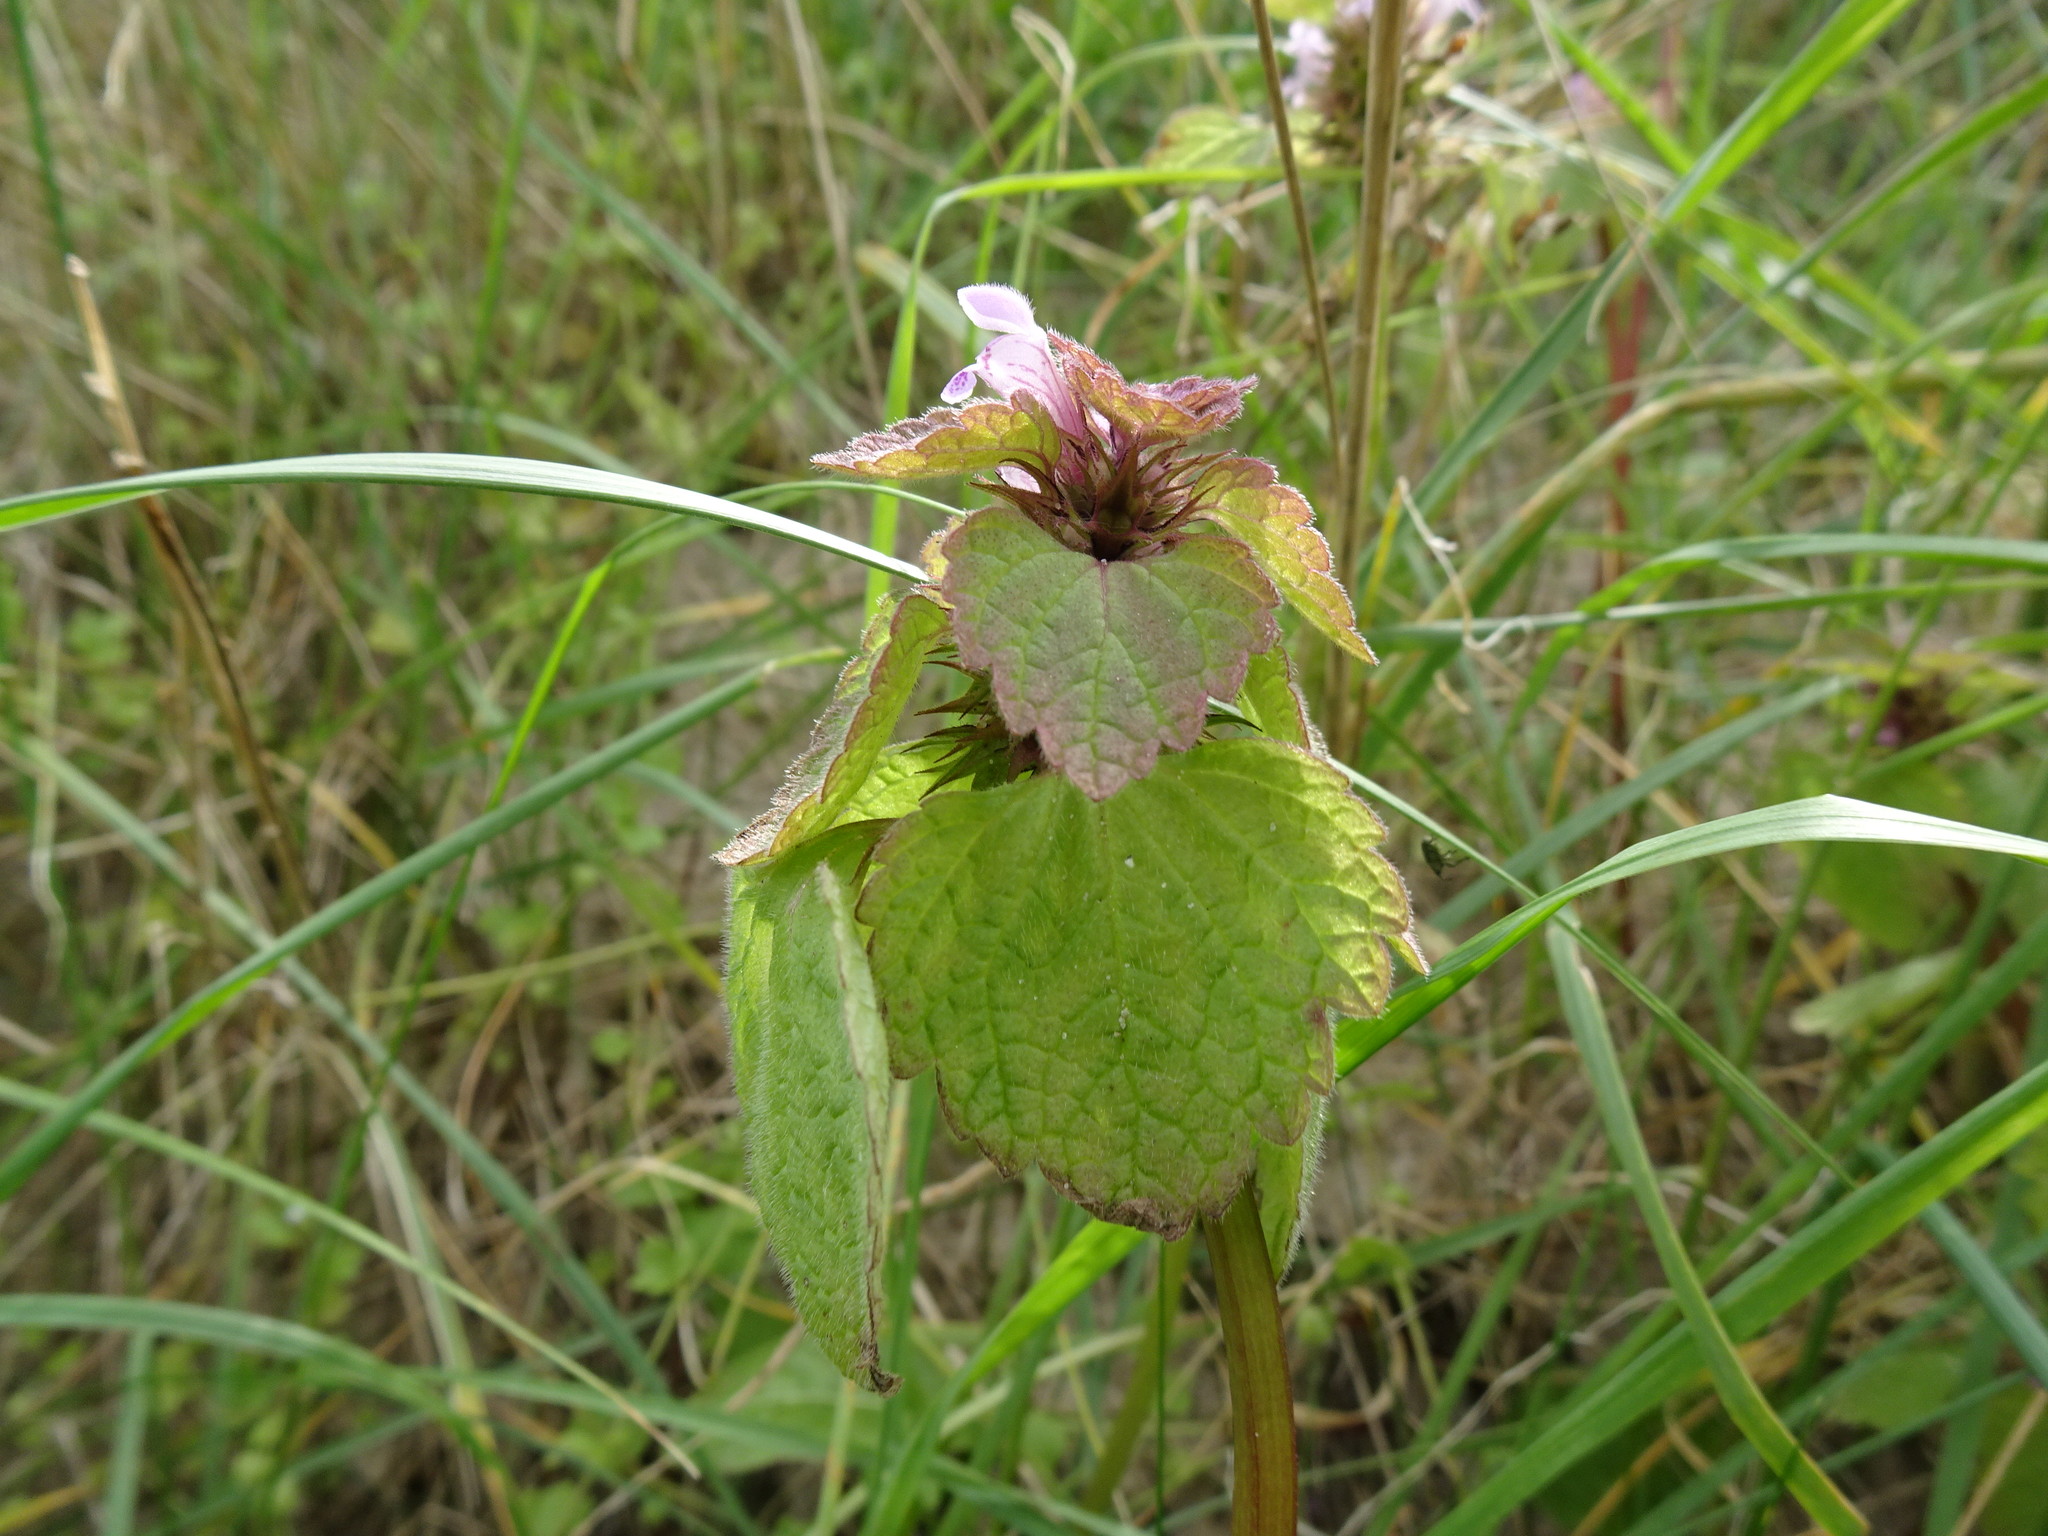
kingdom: Plantae
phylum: Tracheophyta
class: Magnoliopsida
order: Lamiales
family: Lamiaceae
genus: Lamium
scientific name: Lamium purpureum
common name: Red dead-nettle
